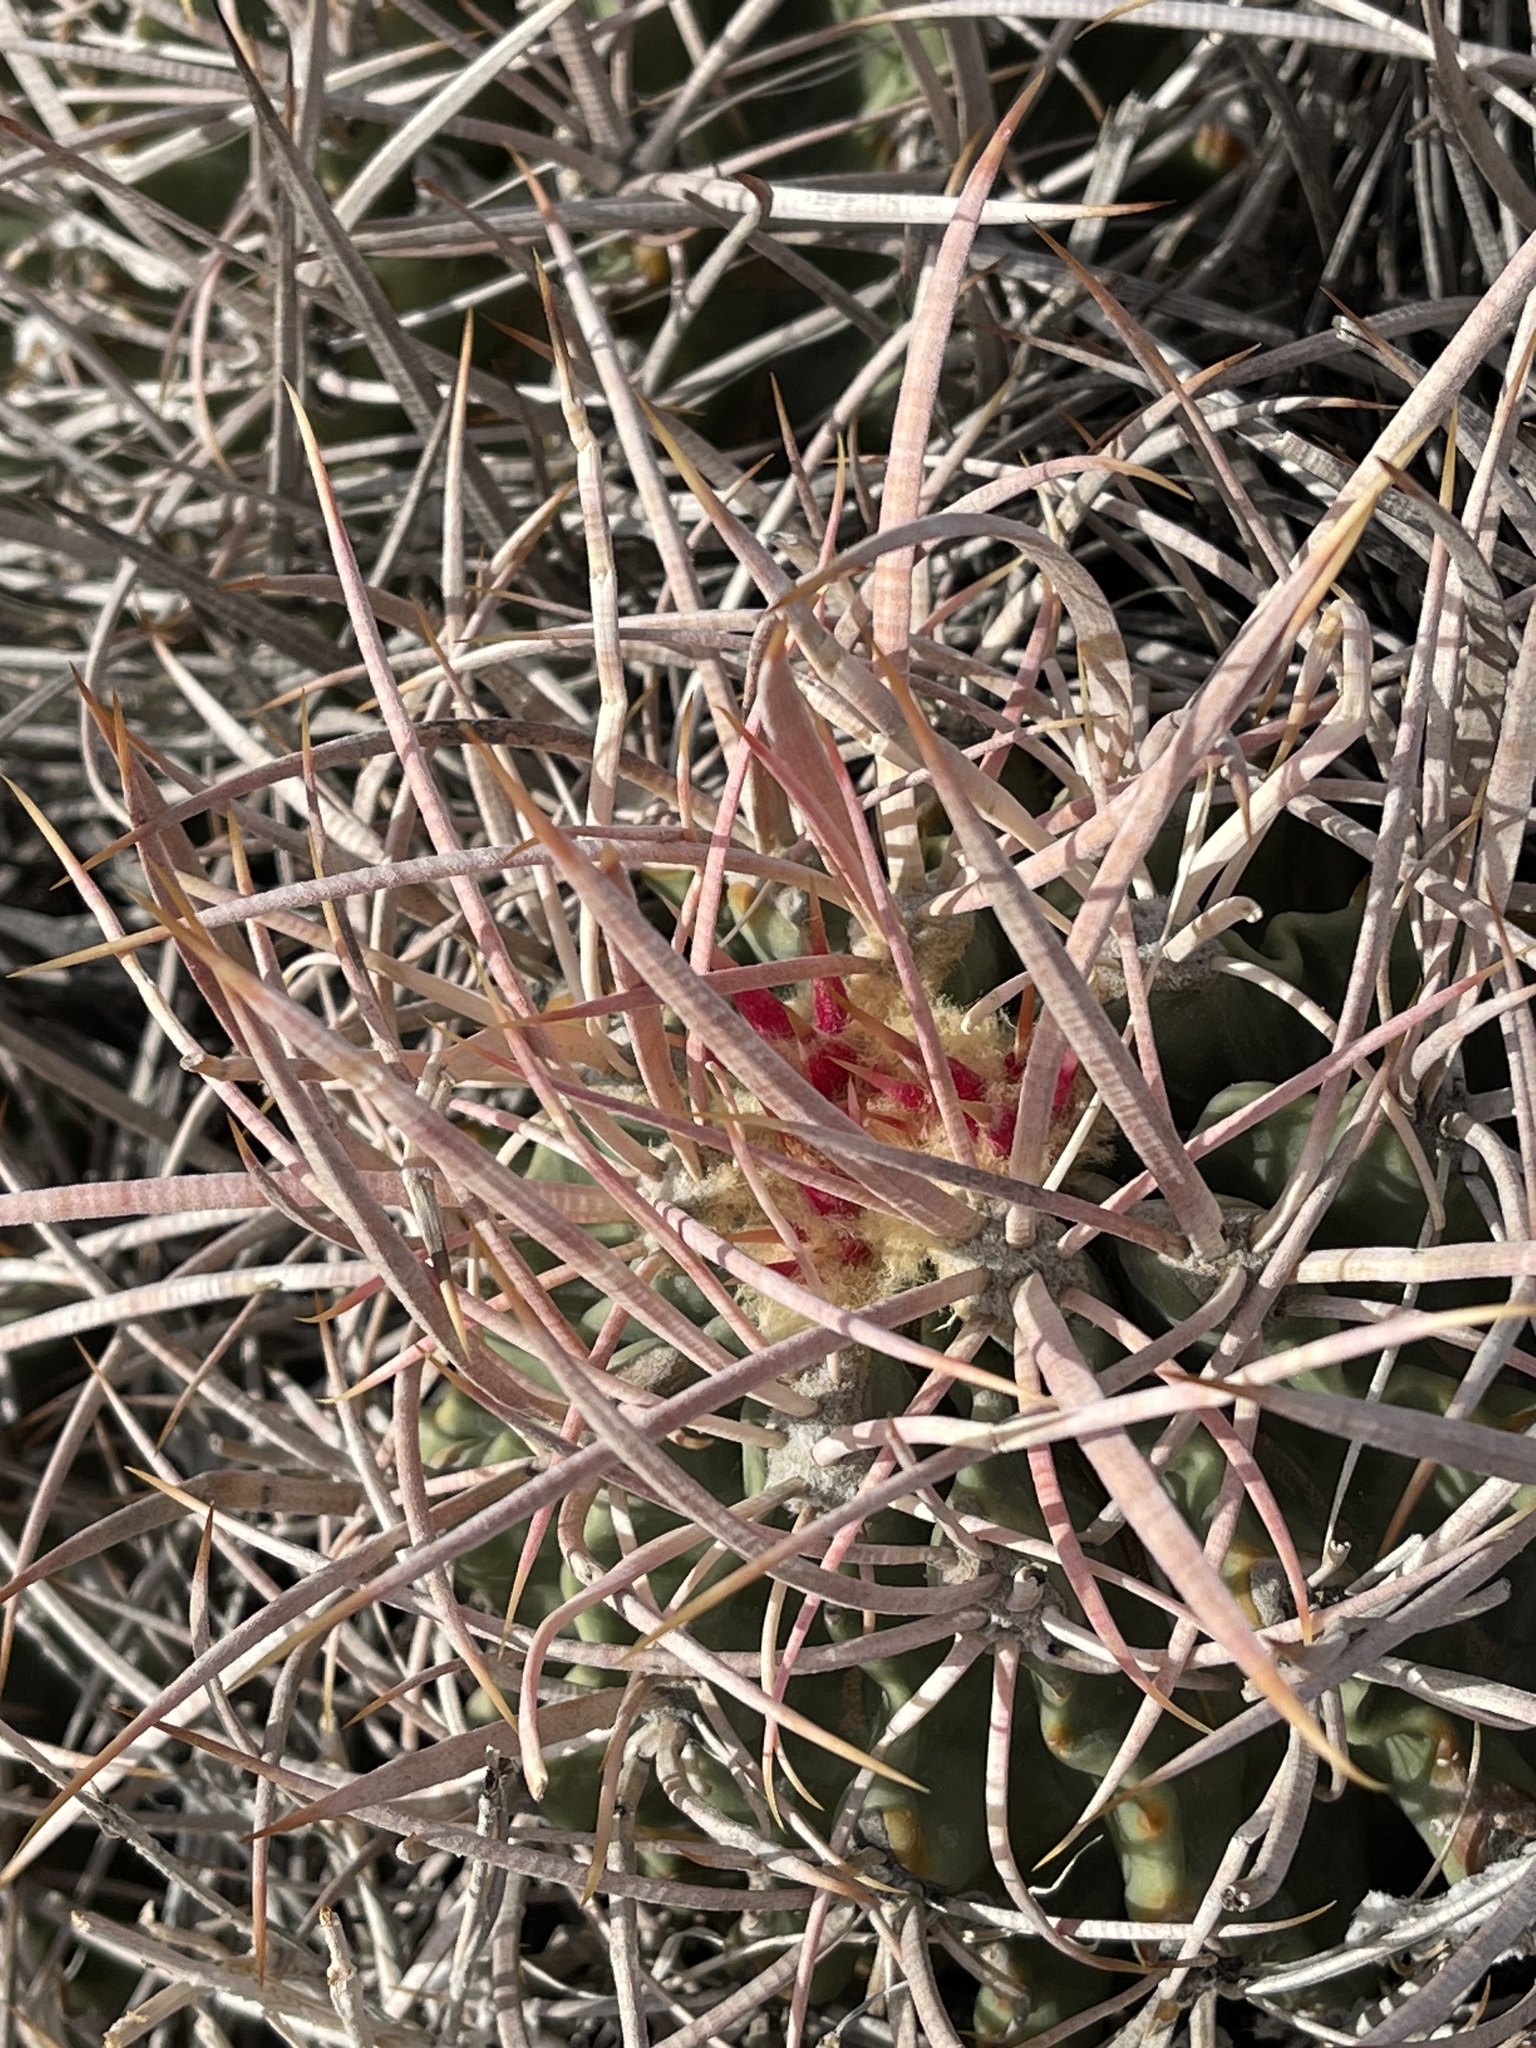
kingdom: Plantae
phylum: Tracheophyta
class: Magnoliopsida
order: Caryophyllales
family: Cactaceae
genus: Echinocactus
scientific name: Echinocactus polycephalus
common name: Cottontop cactus
